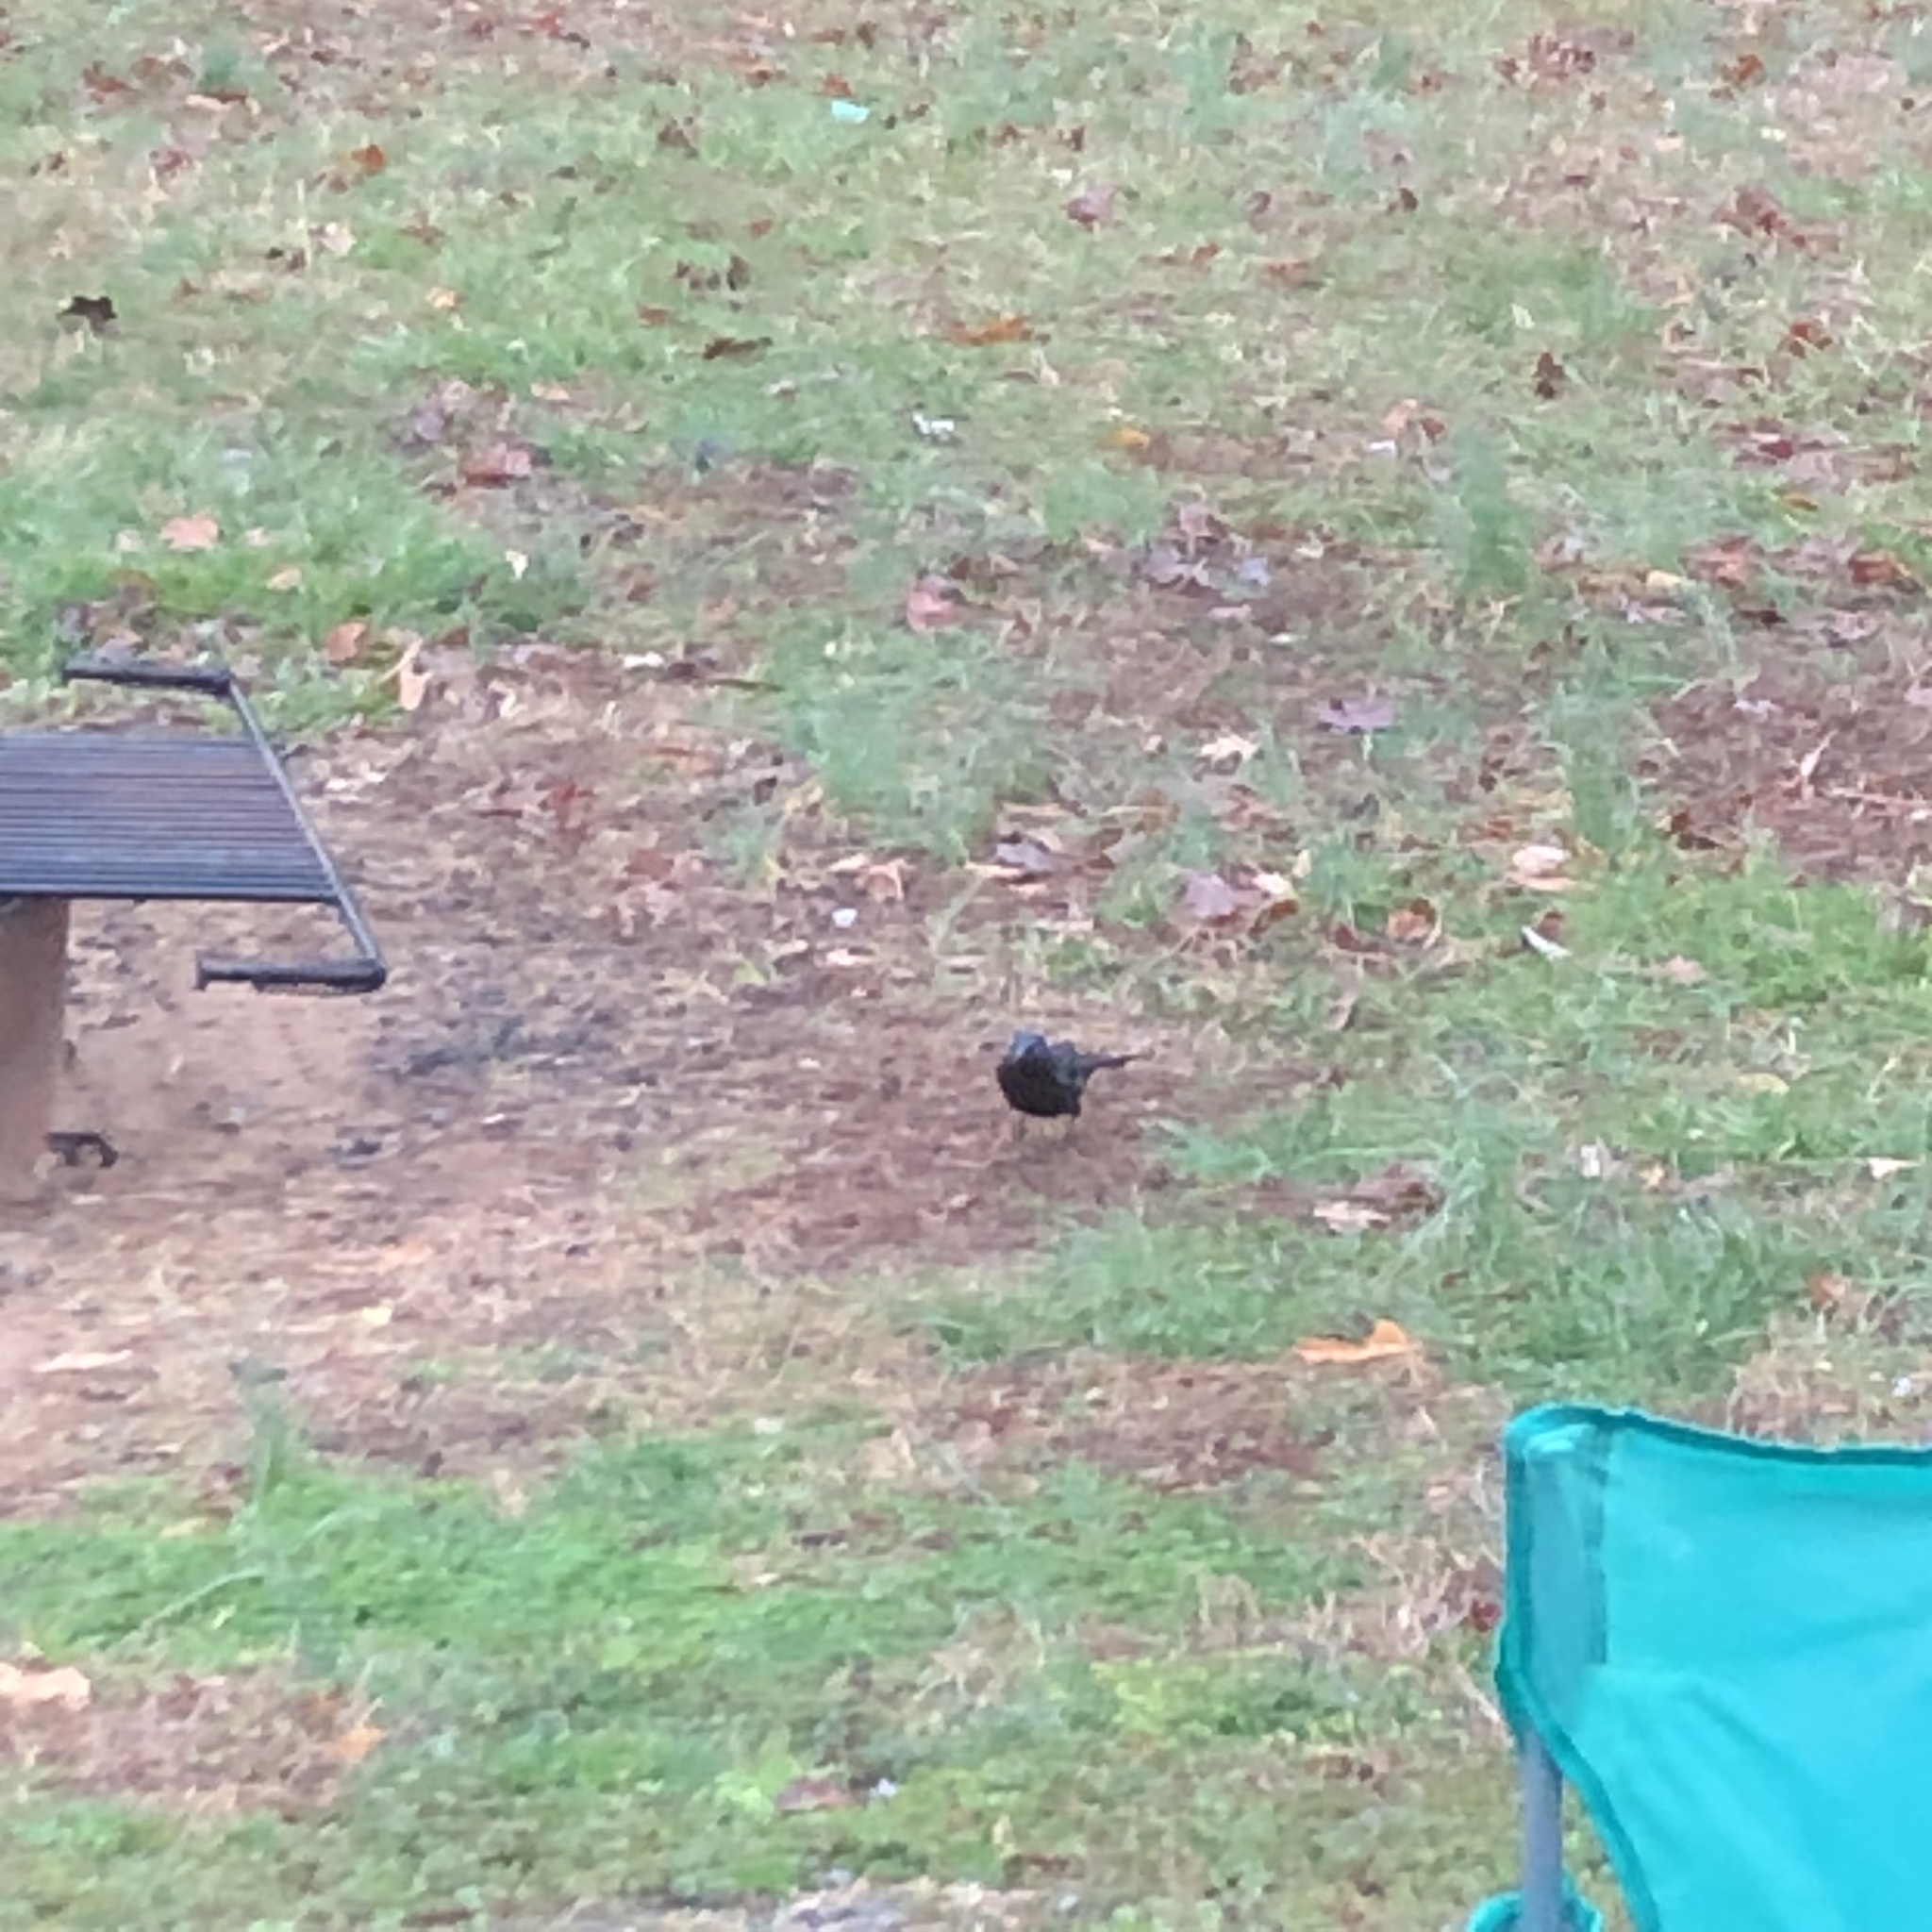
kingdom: Animalia
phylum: Chordata
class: Aves
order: Passeriformes
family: Icteridae
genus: Quiscalus
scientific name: Quiscalus quiscula
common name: Common grackle
